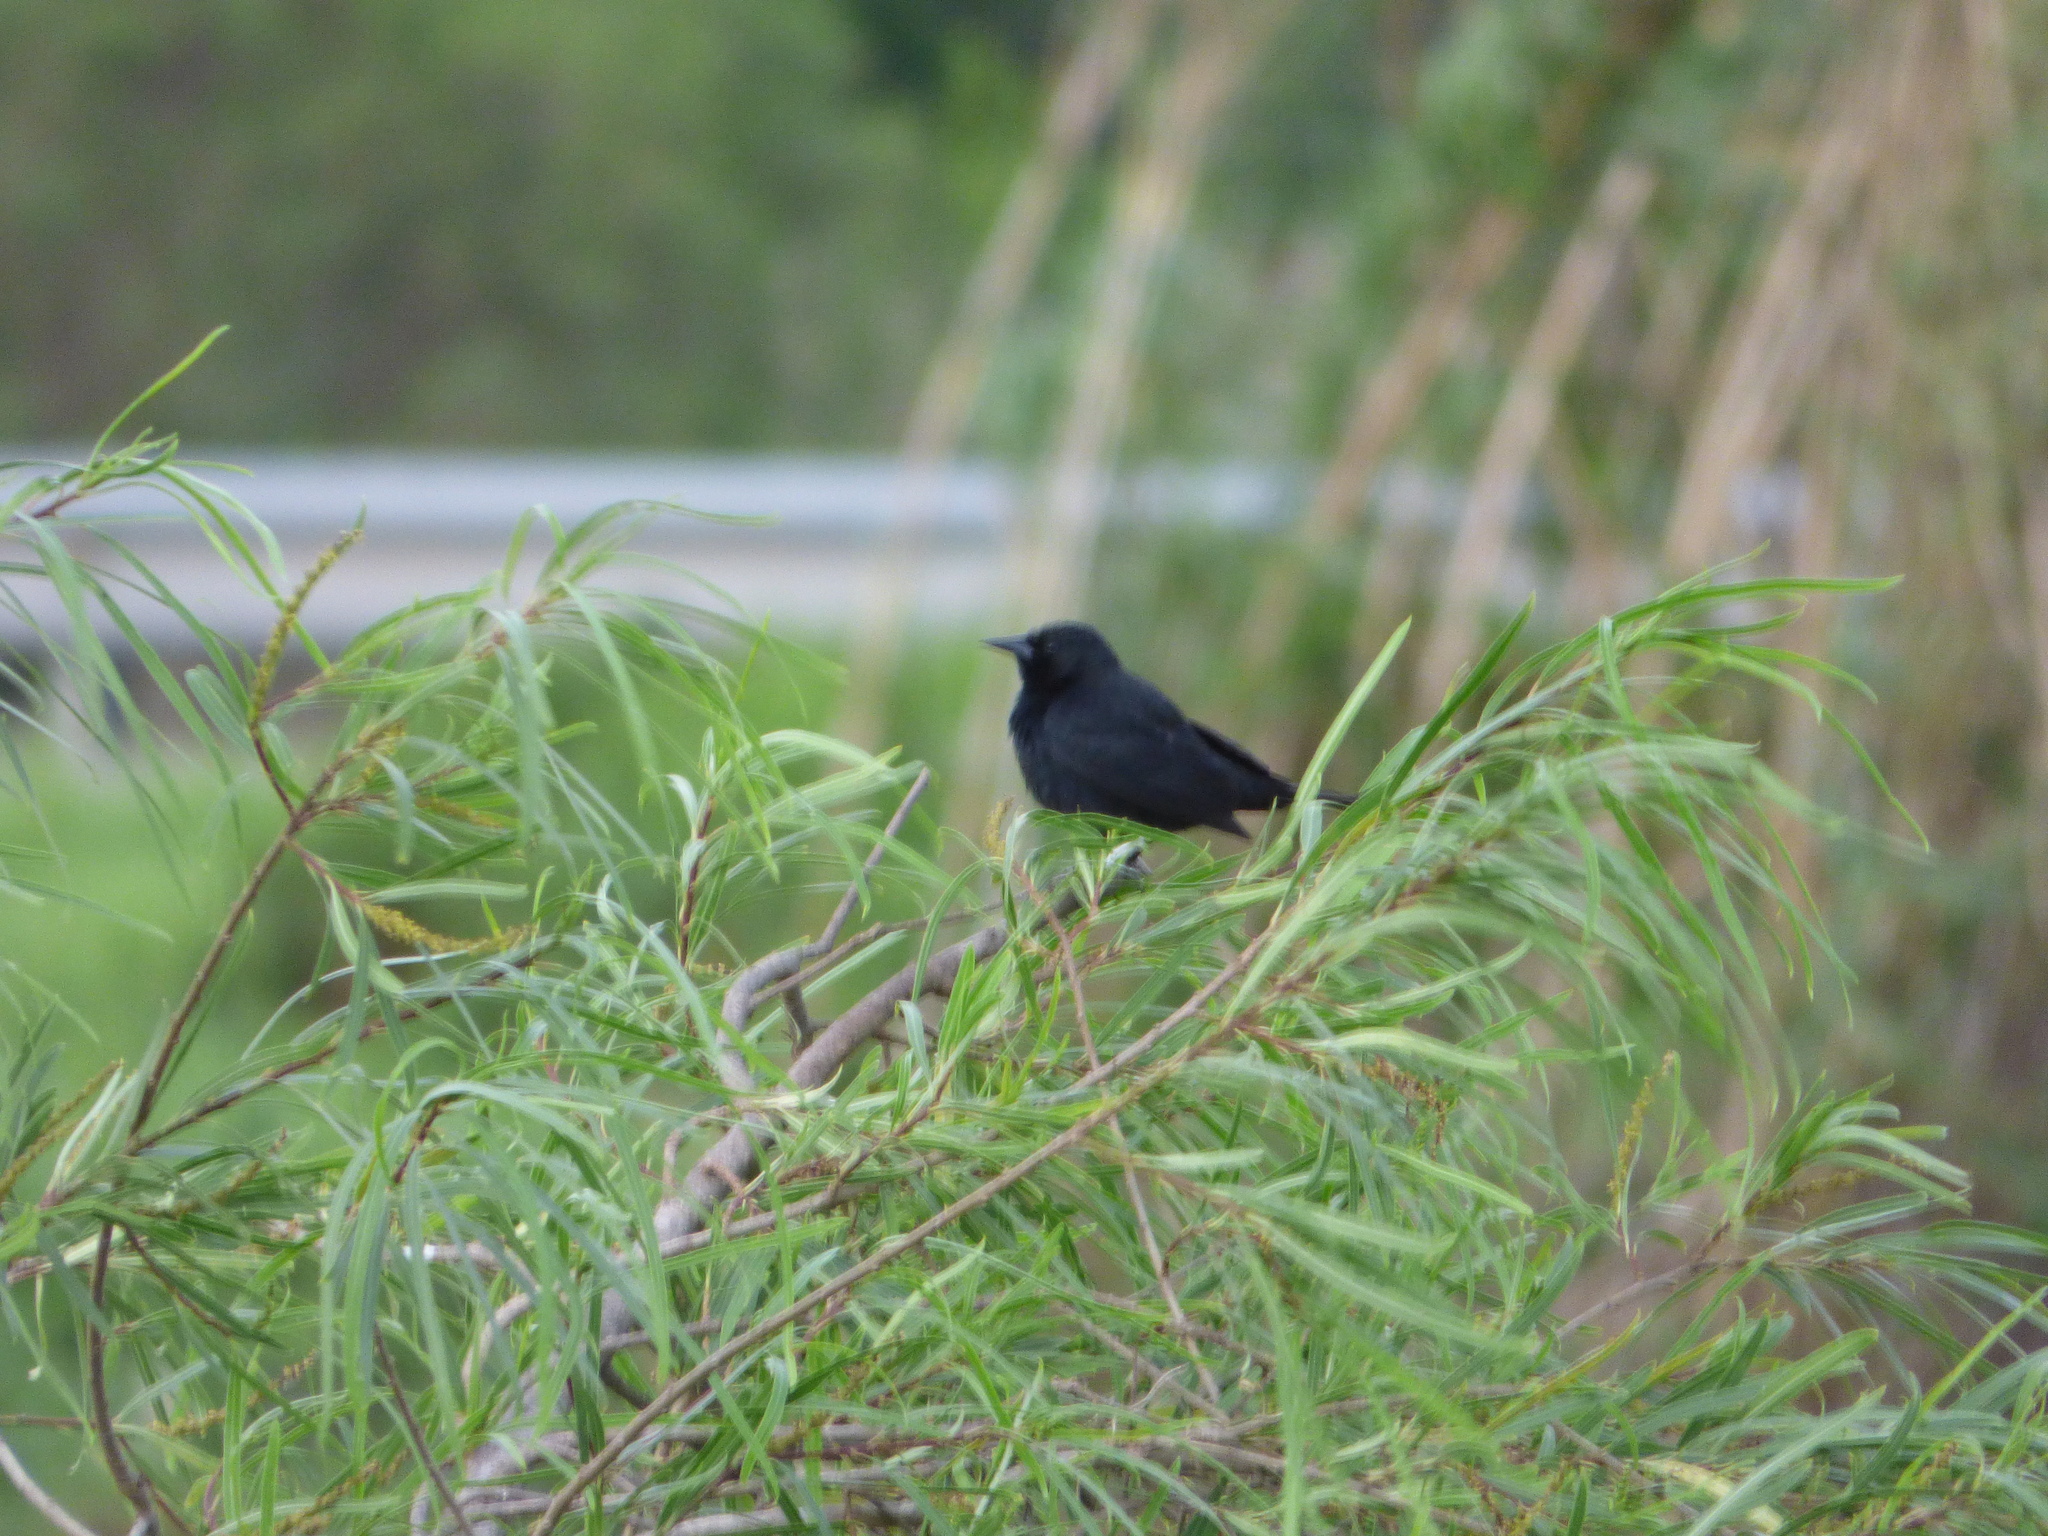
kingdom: Animalia
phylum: Chordata
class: Aves
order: Passeriformes
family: Icteridae
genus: Agelasticus
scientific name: Agelasticus cyanopus
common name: Unicolored blackbird
